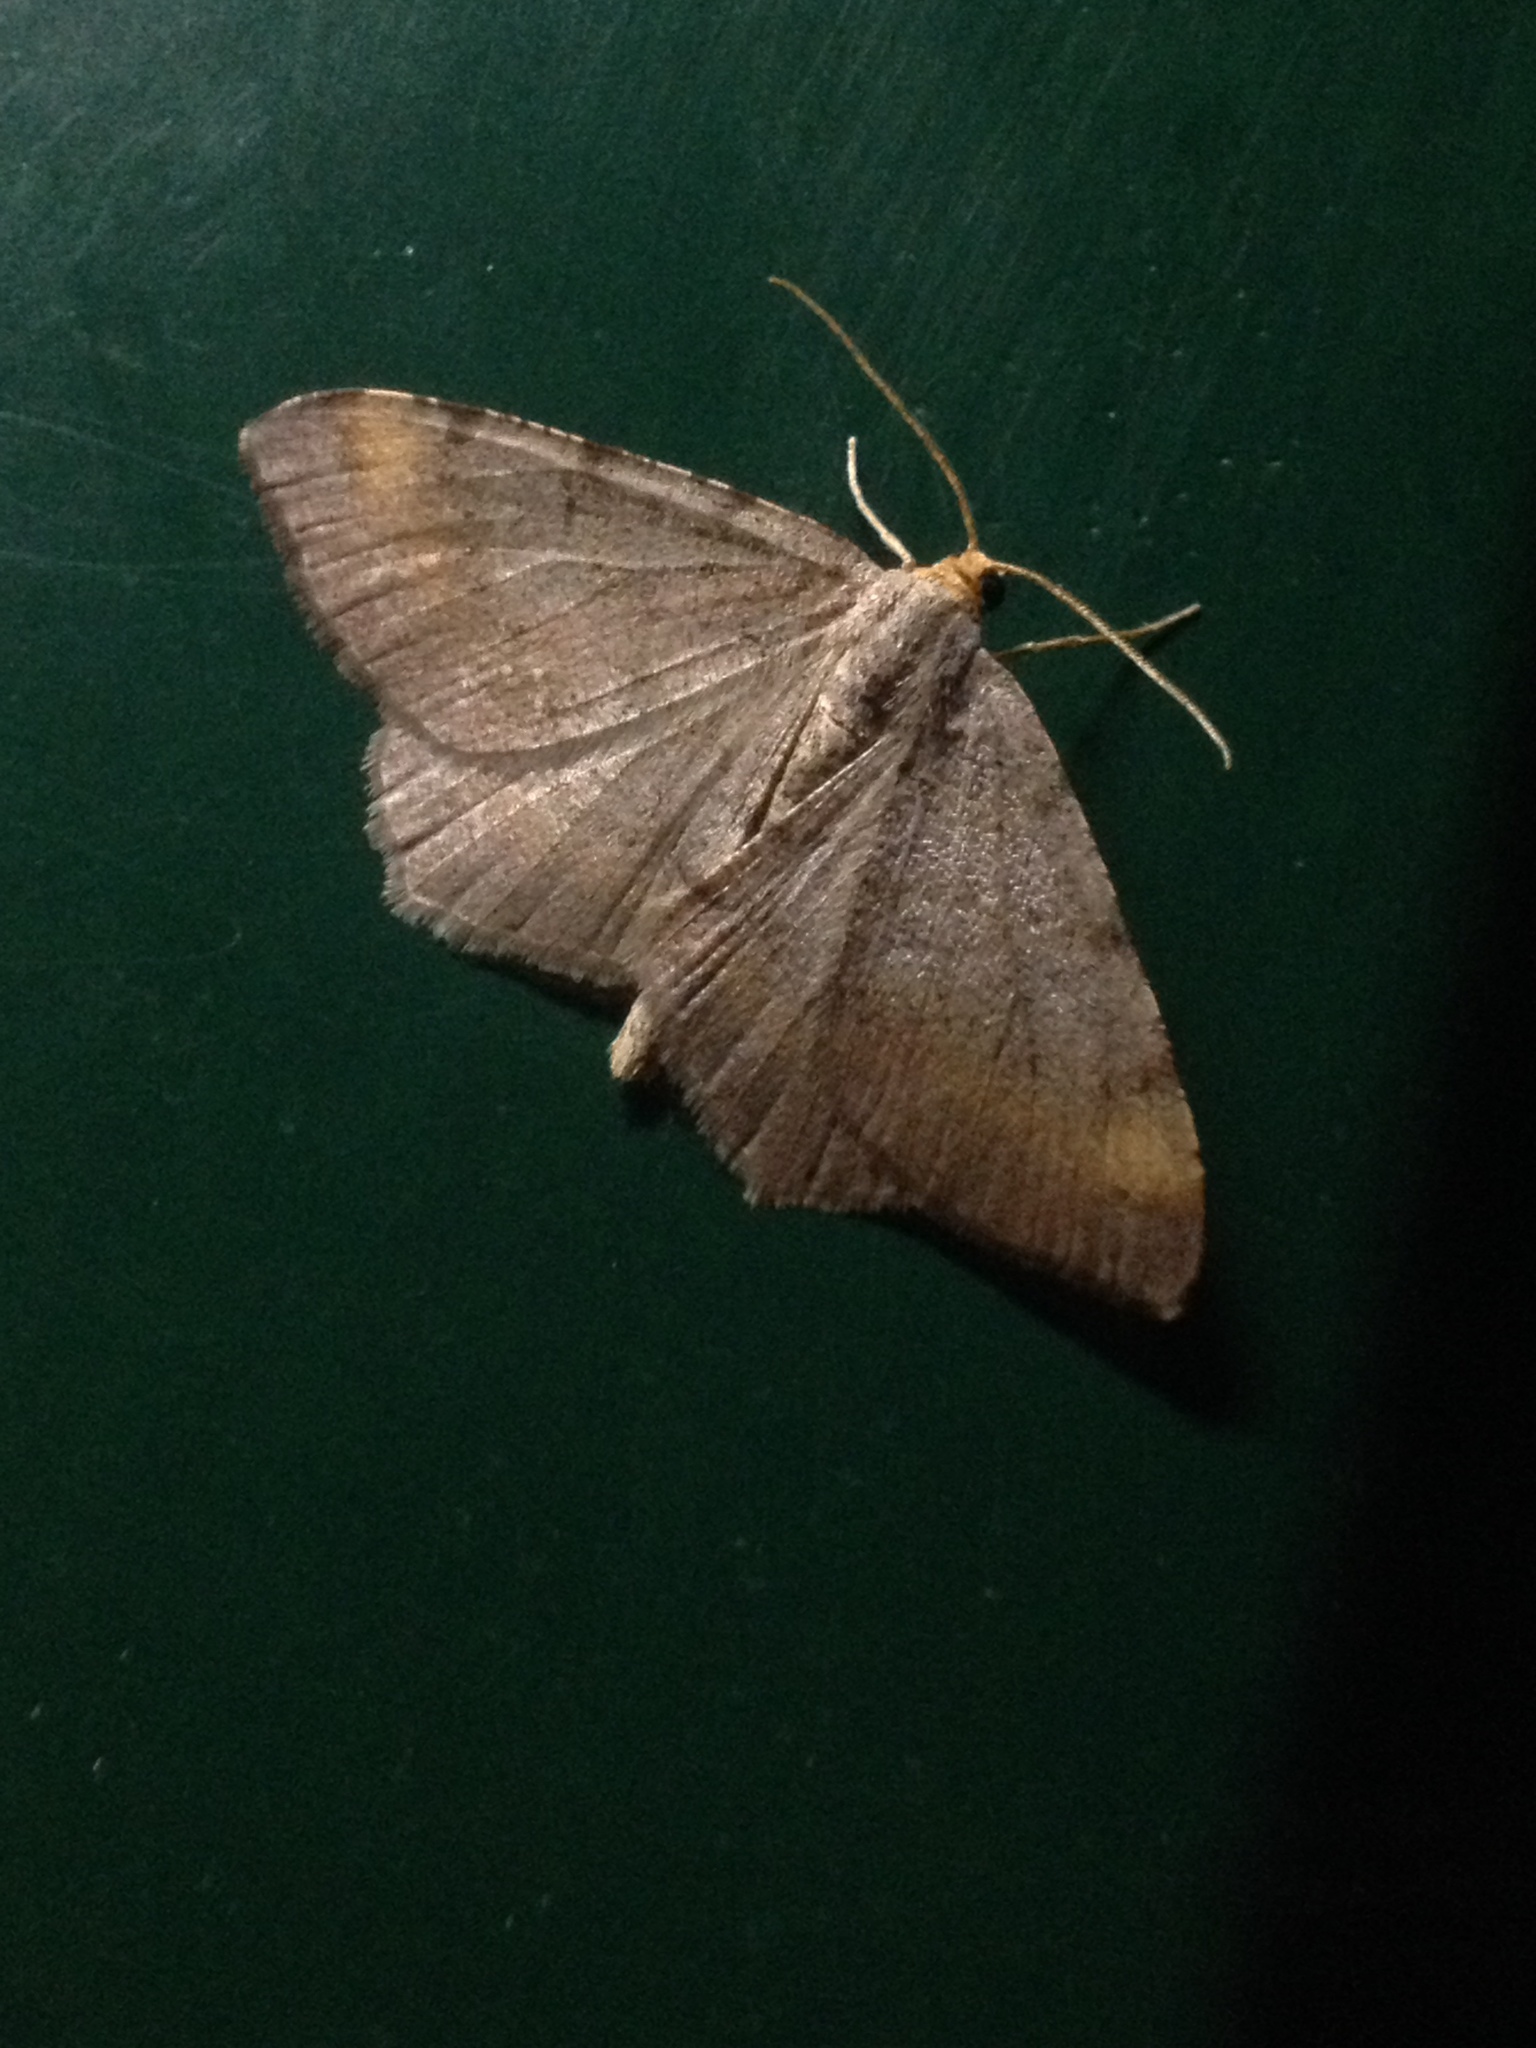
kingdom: Animalia
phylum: Arthropoda
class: Insecta
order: Lepidoptera
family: Geometridae
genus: Macaria
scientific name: Macaria liturata
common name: Tawny-barred angle
